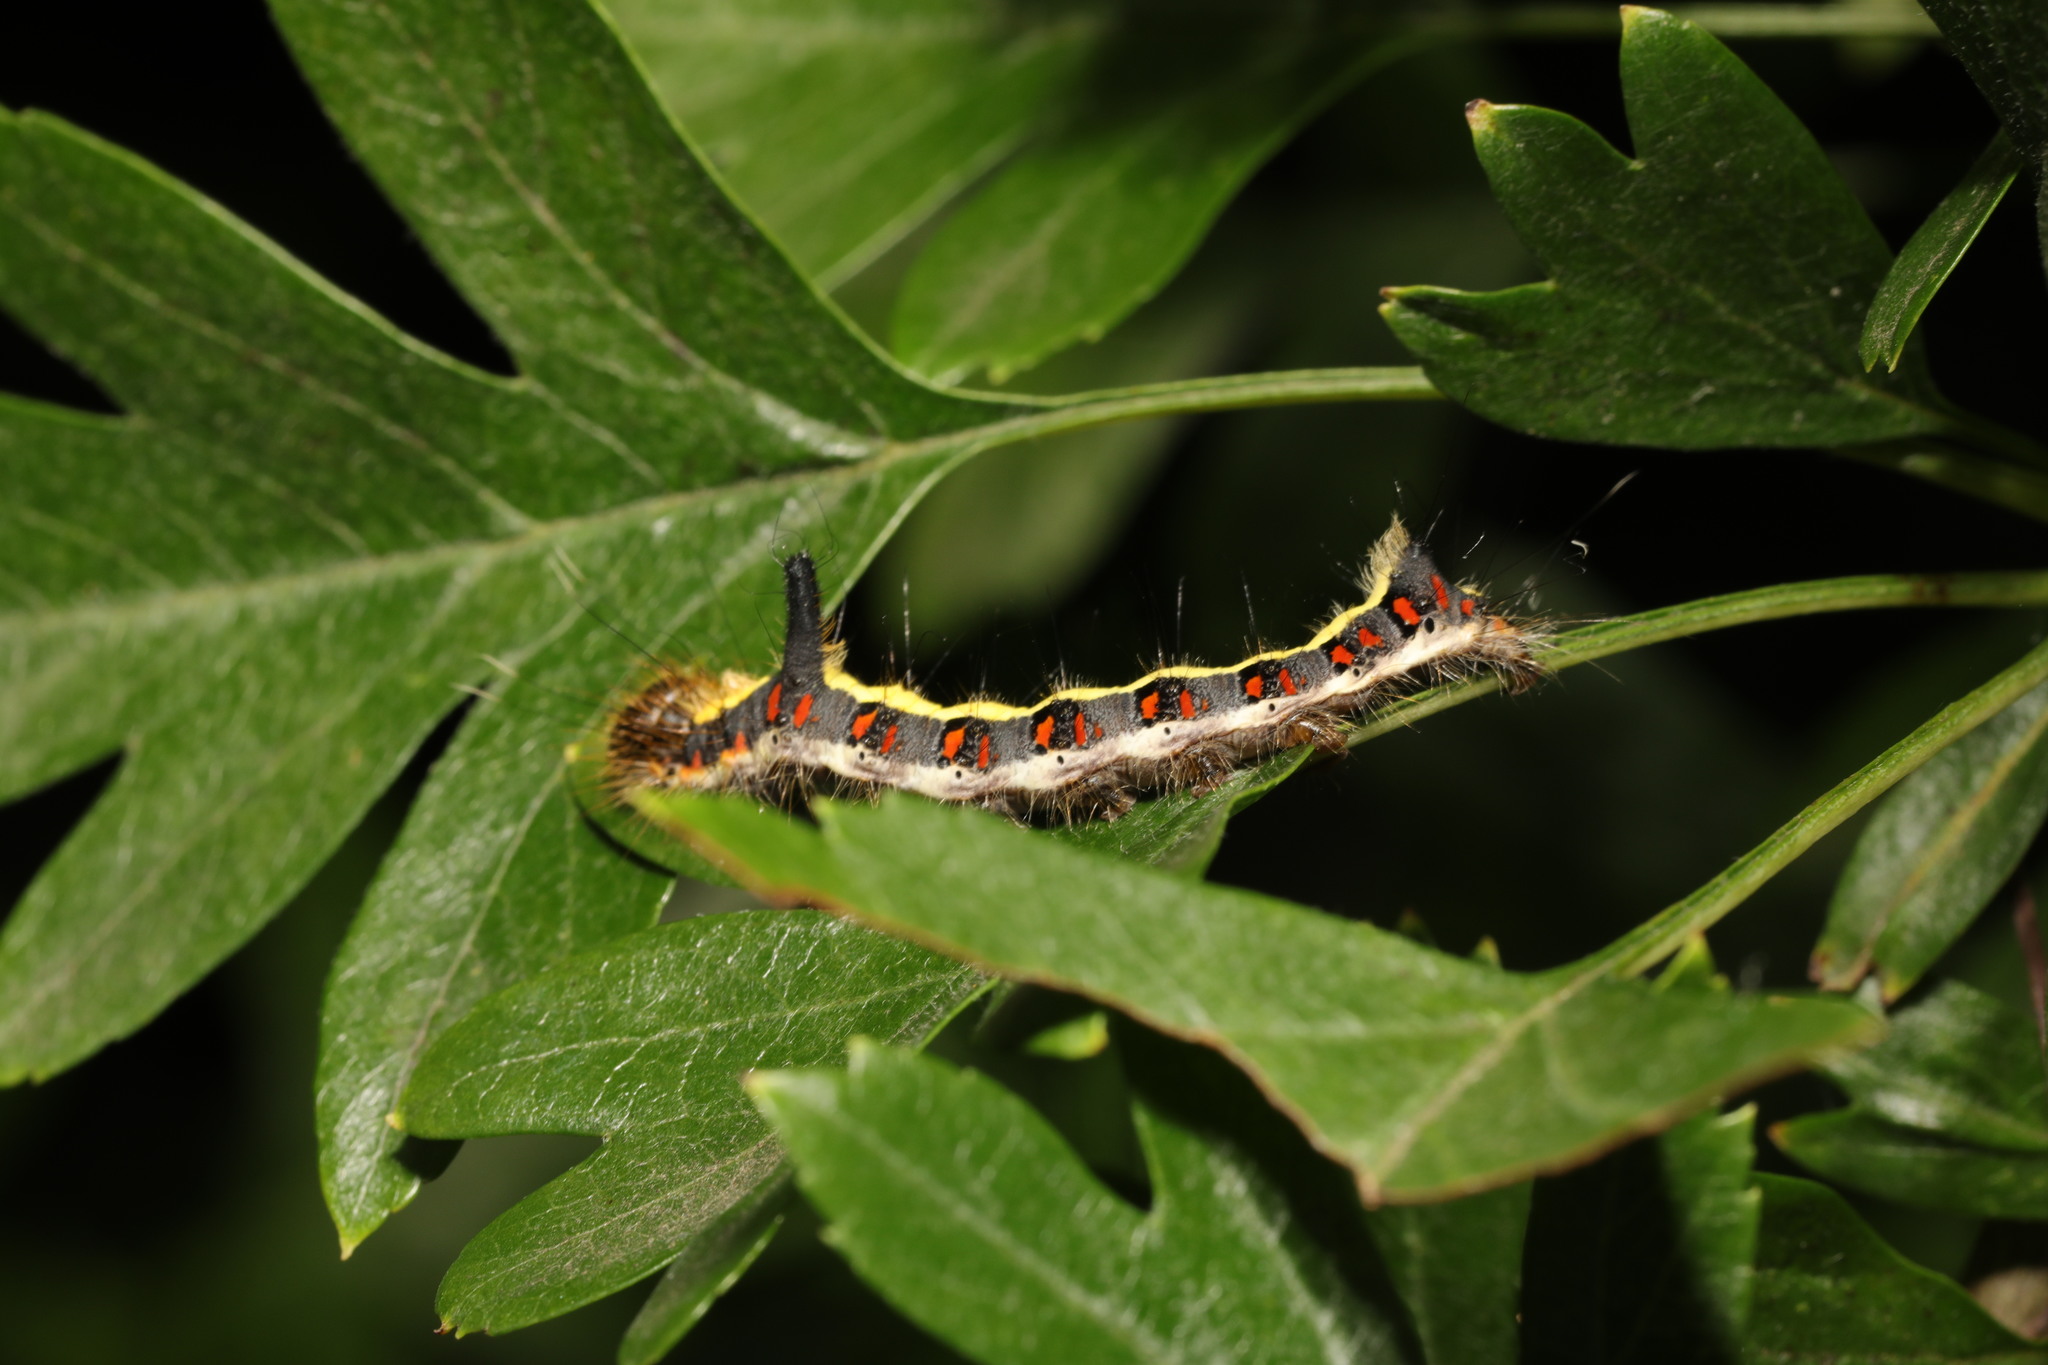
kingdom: Animalia
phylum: Arthropoda
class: Insecta
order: Lepidoptera
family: Noctuidae
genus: Acronicta
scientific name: Acronicta psi
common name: Grey dagger
